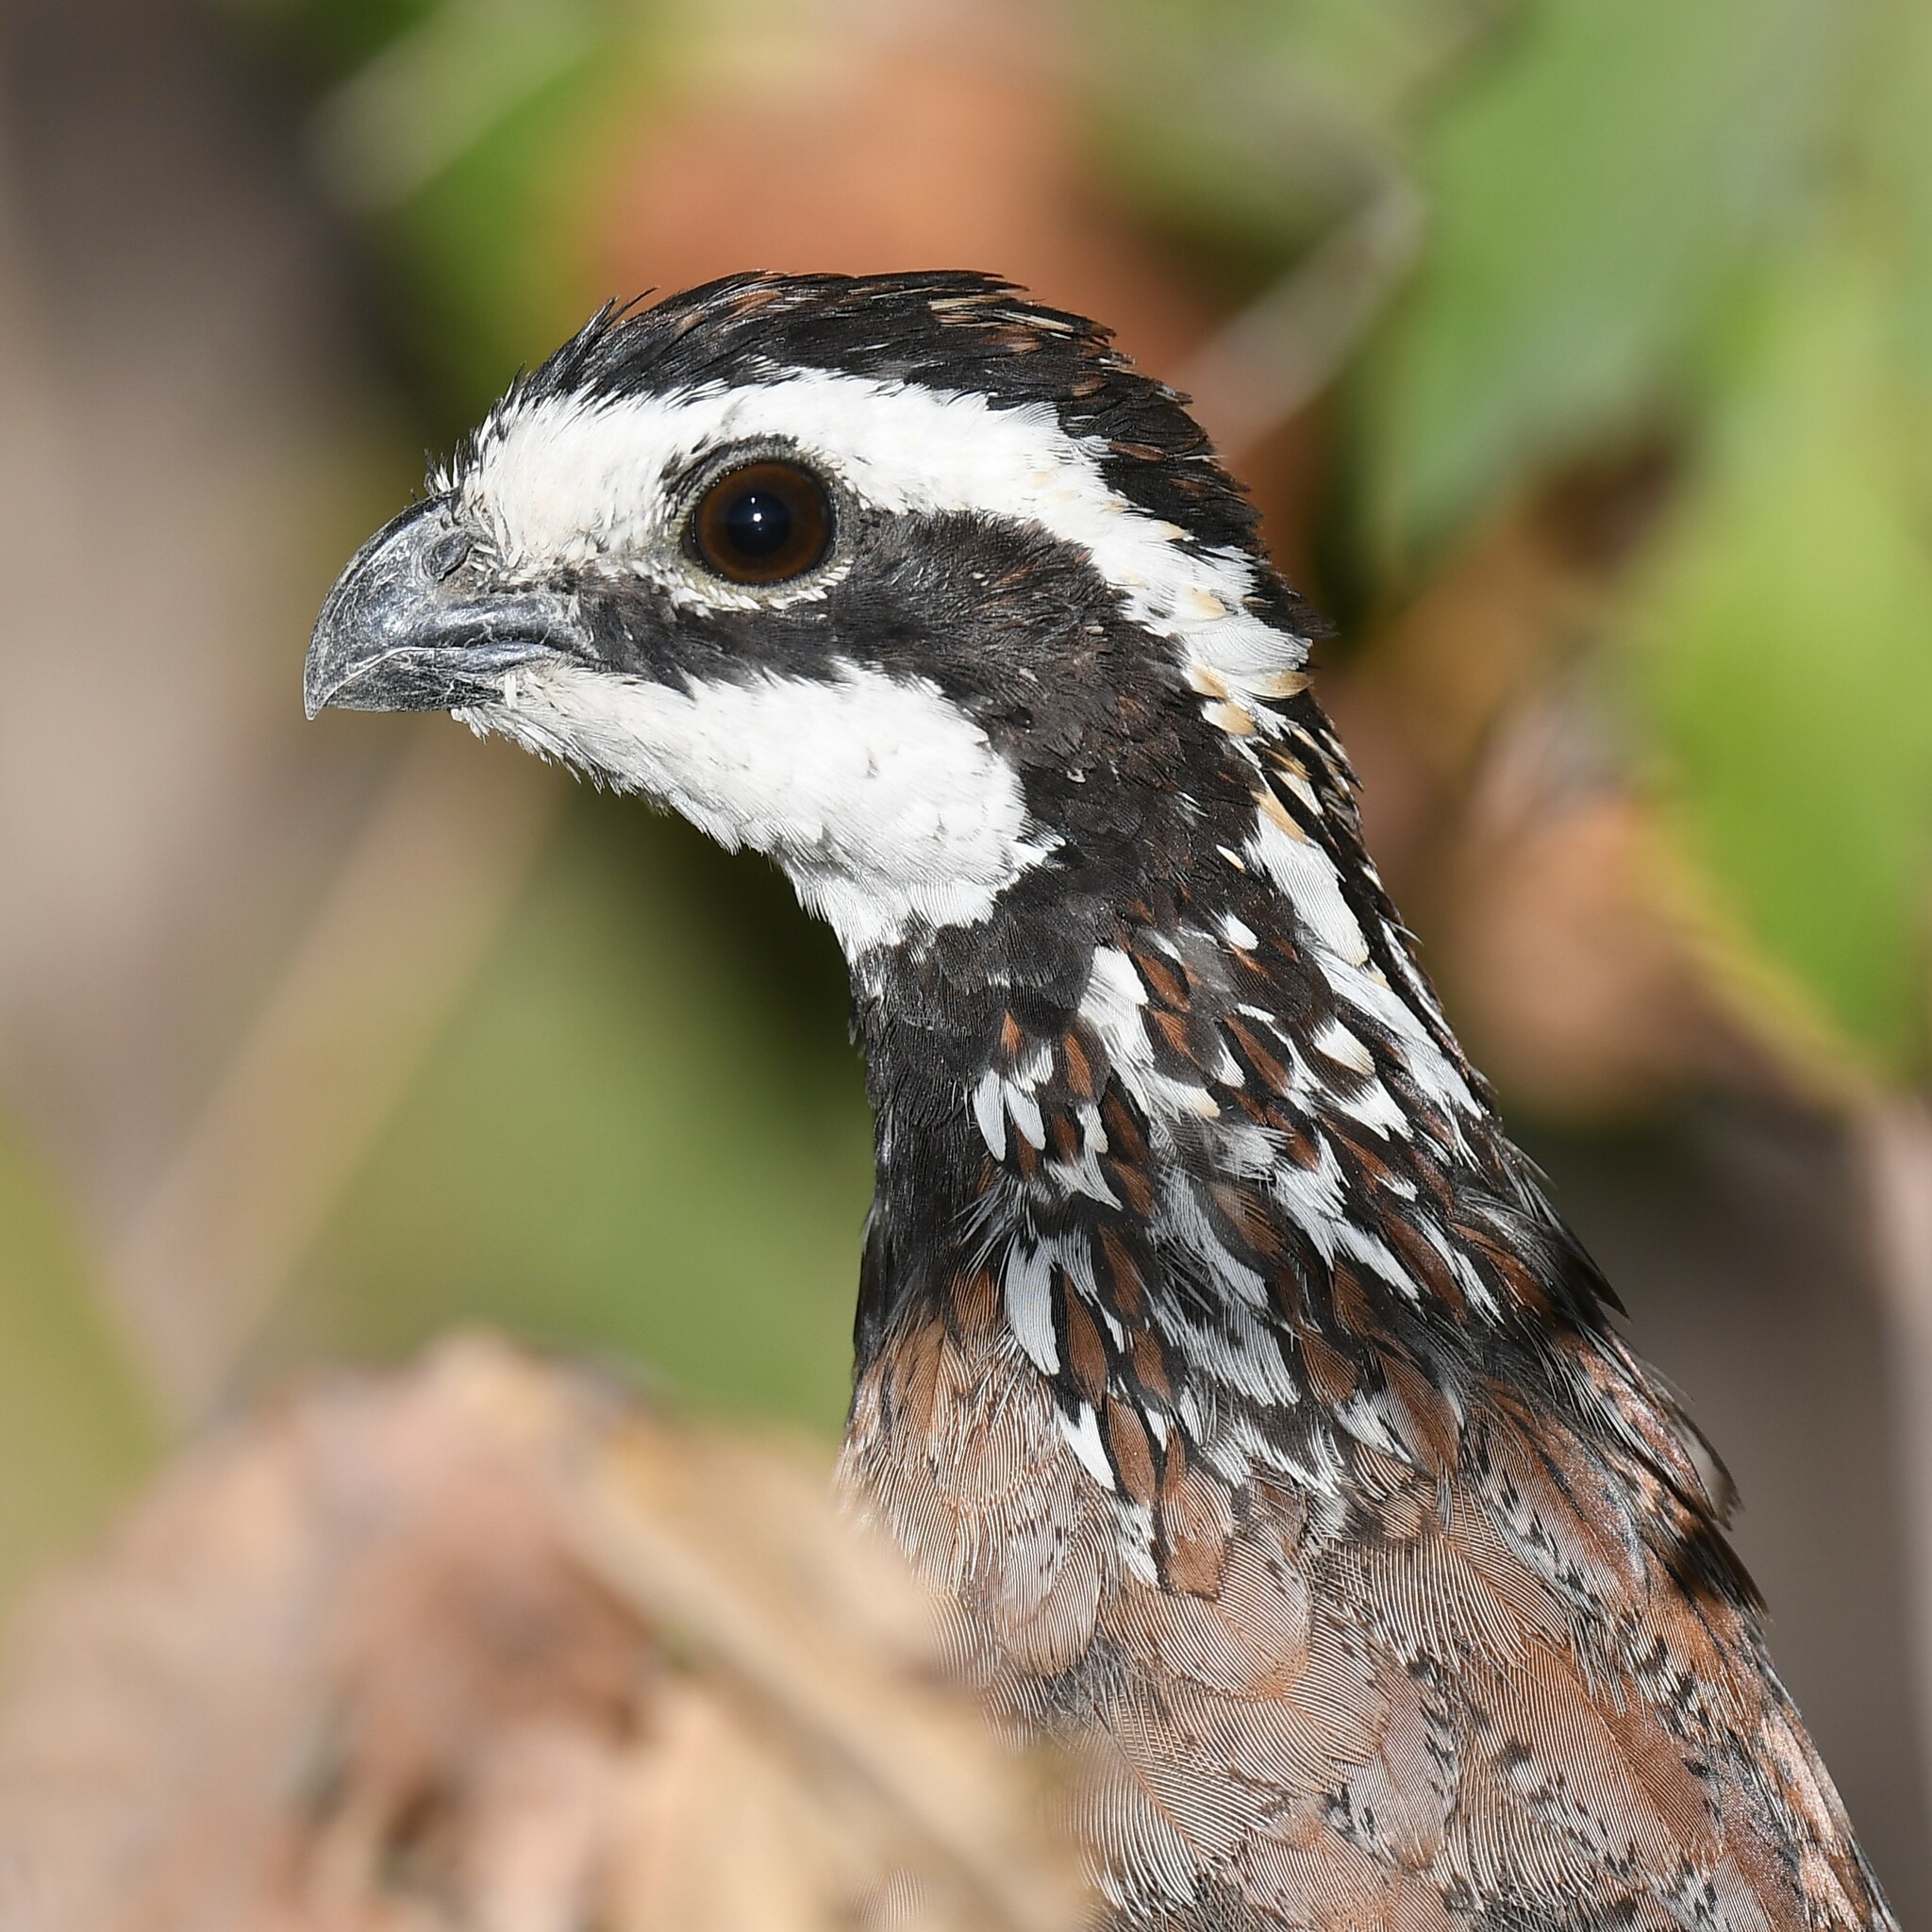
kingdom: Animalia
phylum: Chordata
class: Aves
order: Galliformes
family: Odontophoridae
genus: Colinus
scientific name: Colinus virginianus
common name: Northern bobwhite
